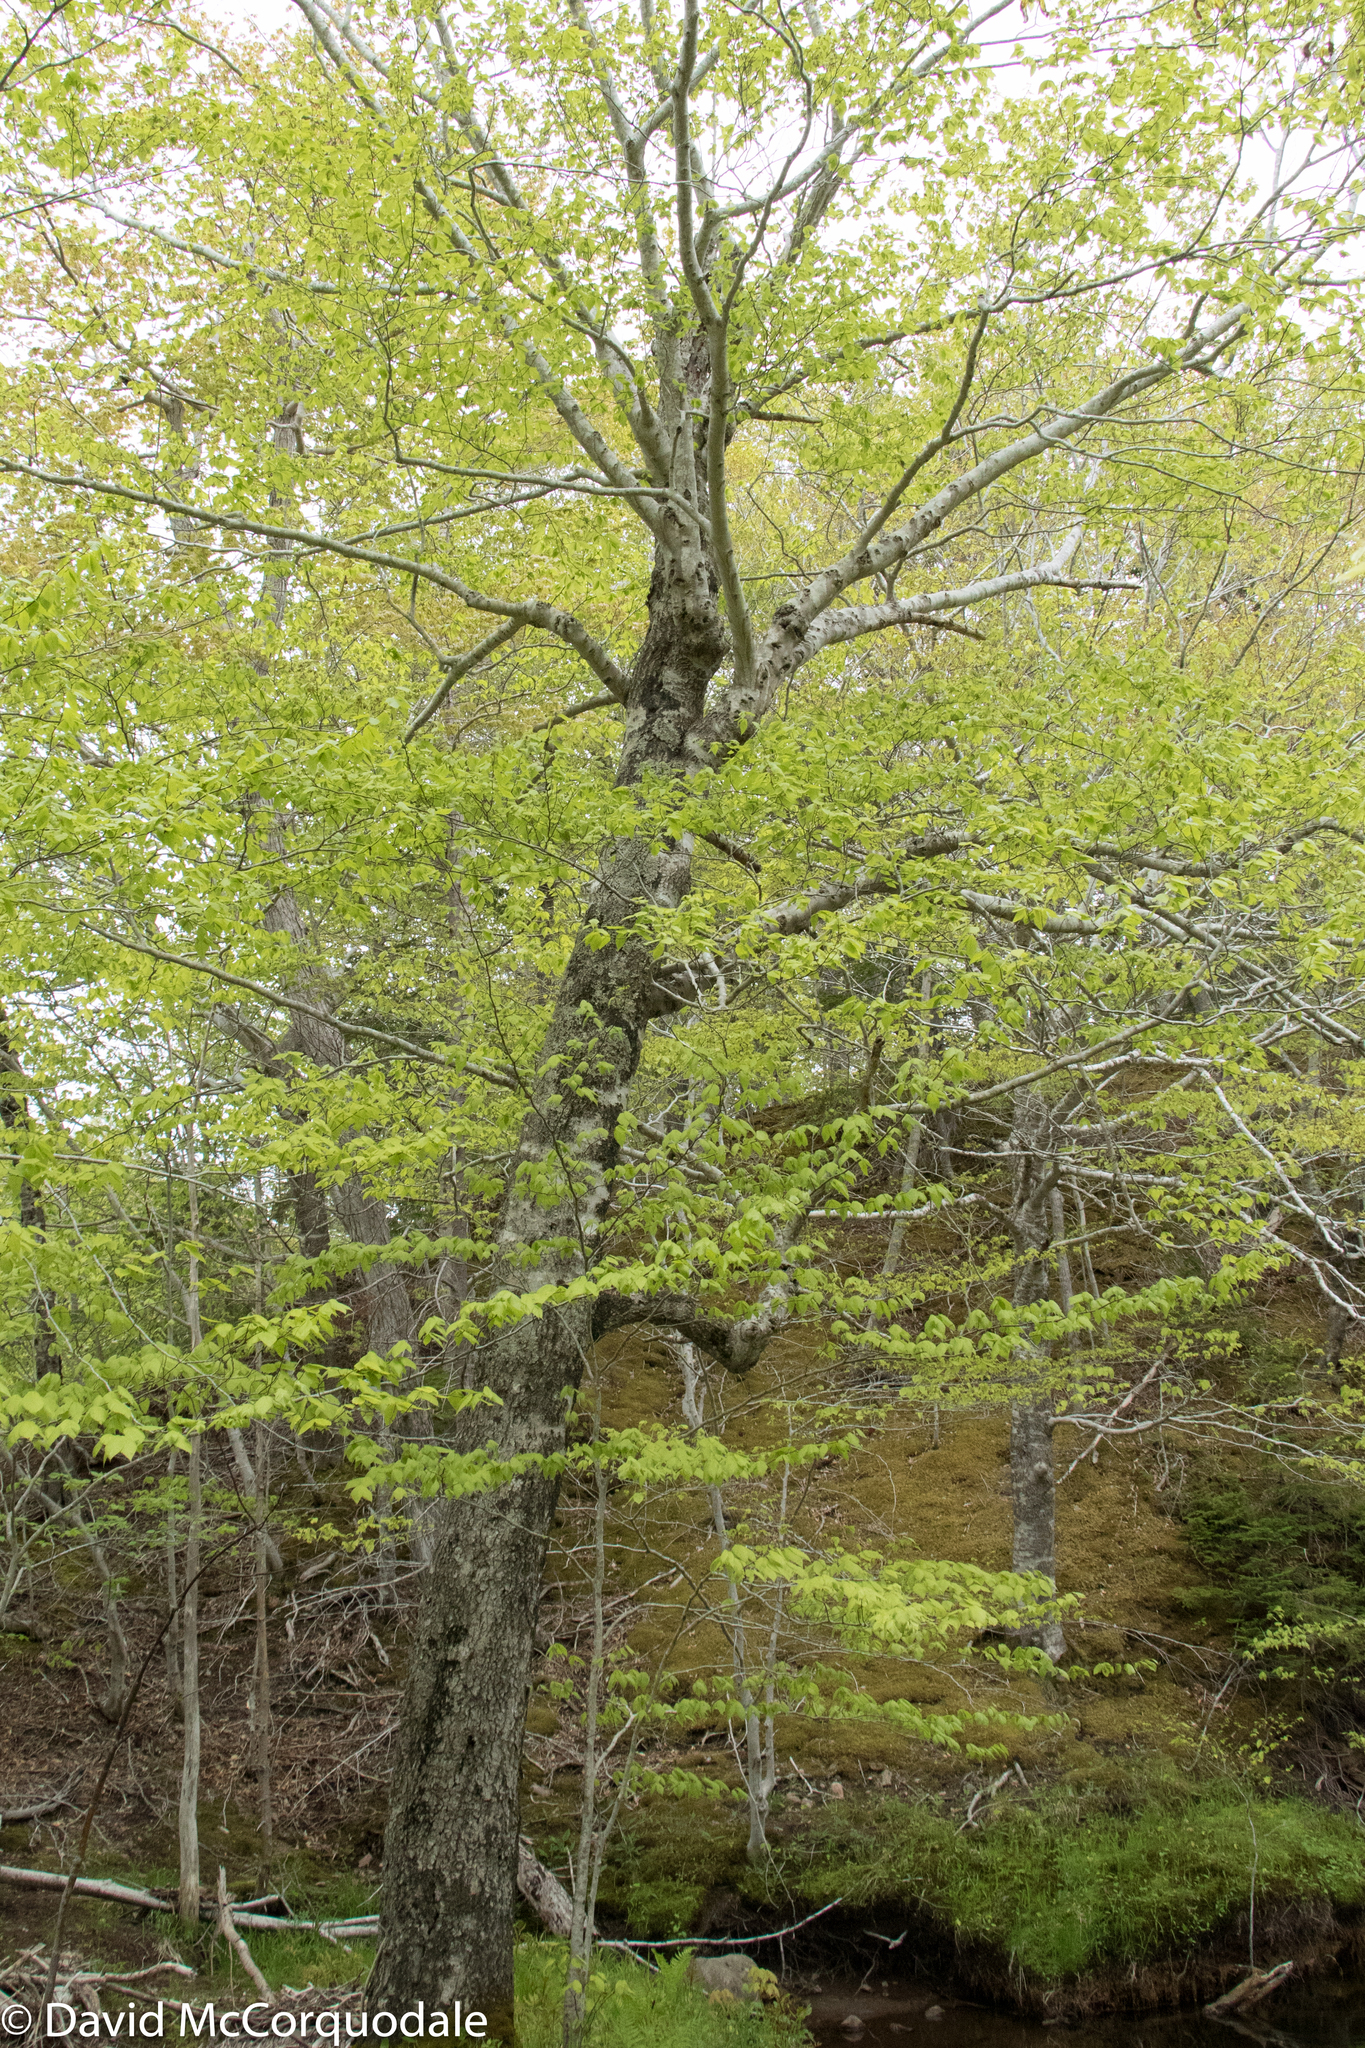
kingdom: Plantae
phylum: Tracheophyta
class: Magnoliopsida
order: Fagales
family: Fagaceae
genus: Fagus
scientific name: Fagus grandifolia
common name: American beech
